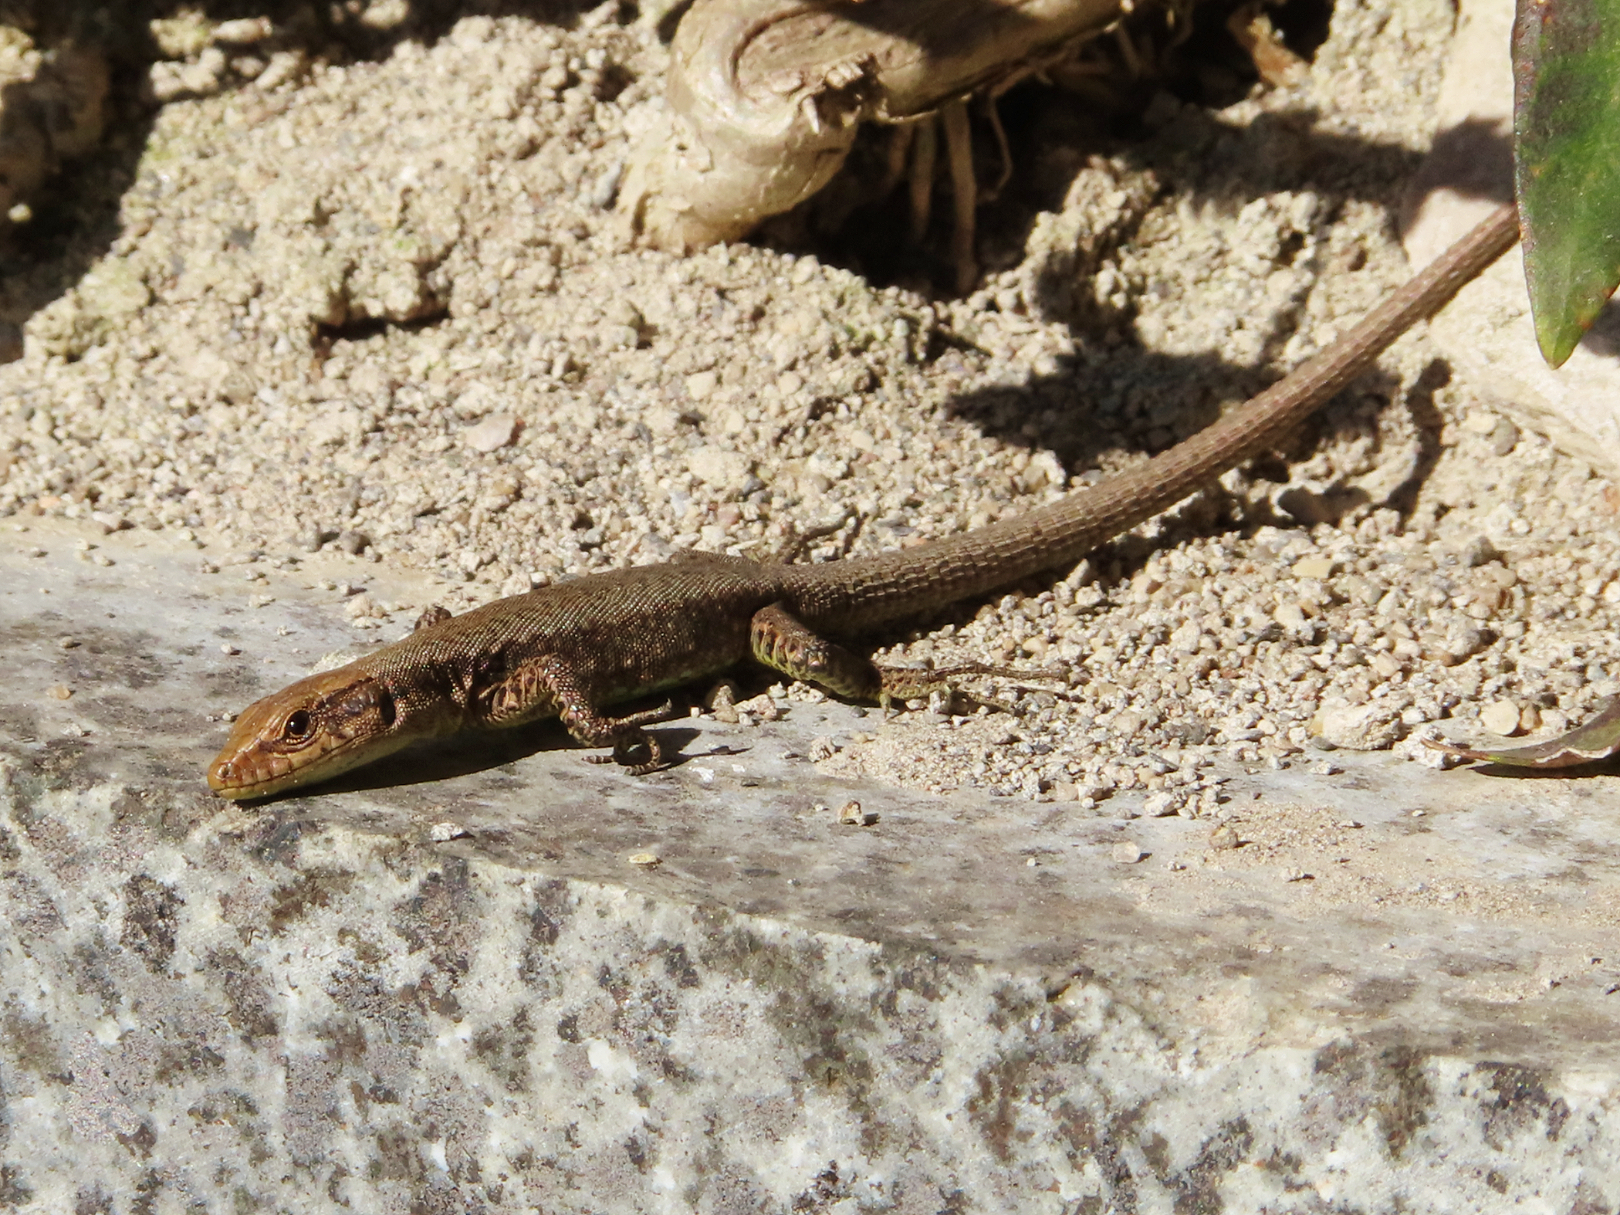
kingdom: Animalia
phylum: Chordata
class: Squamata
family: Lacertidae
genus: Darevskia
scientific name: Darevskia mixta
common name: Ajarian lizard
